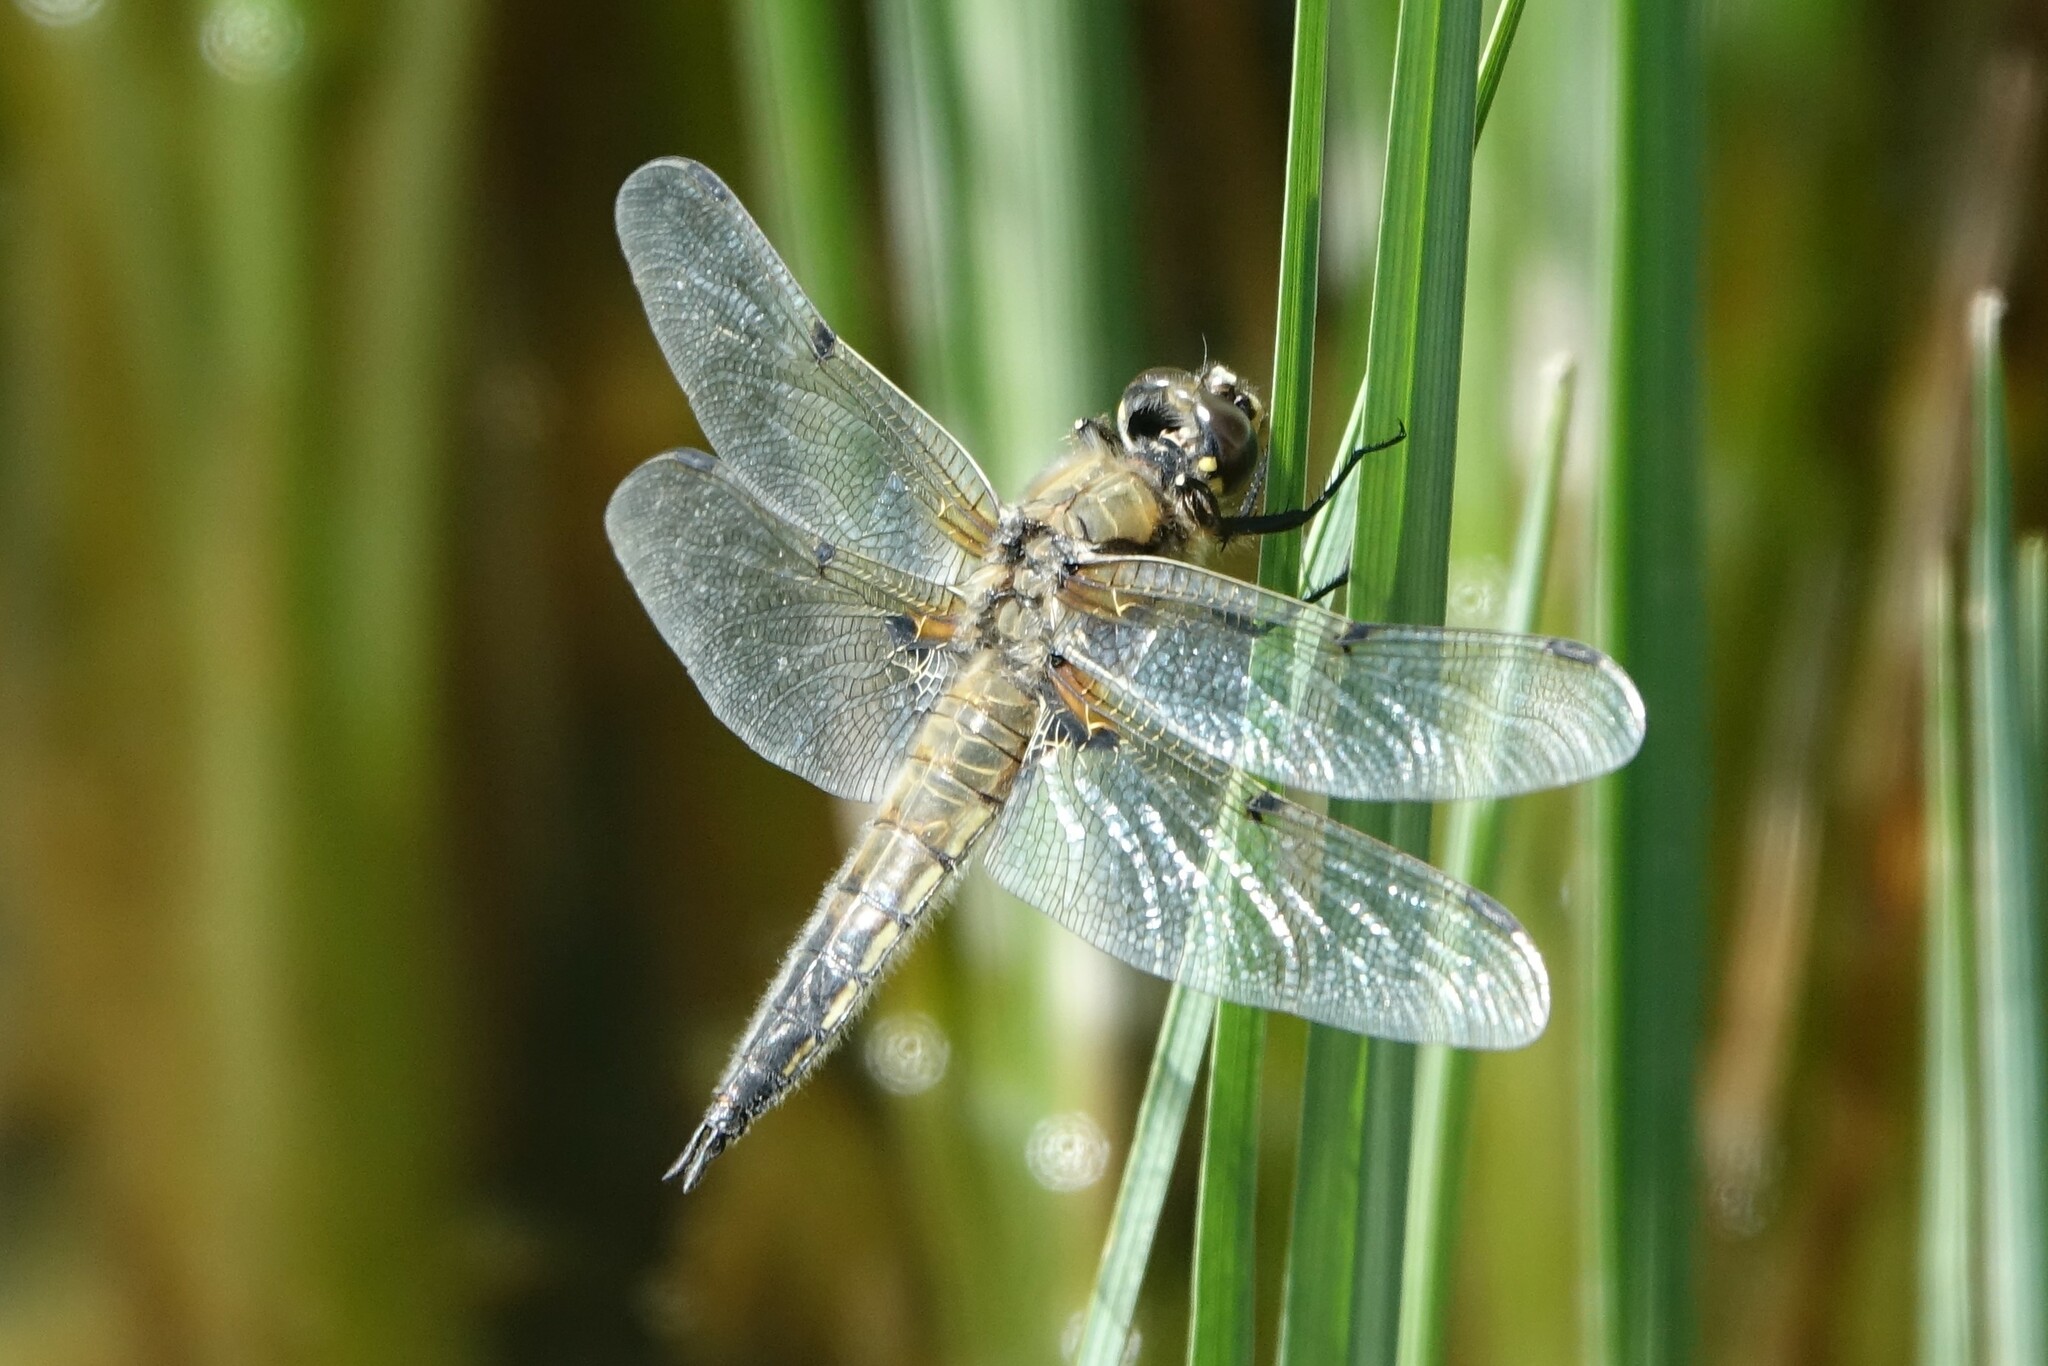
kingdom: Animalia
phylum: Arthropoda
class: Insecta
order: Odonata
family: Libellulidae
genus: Libellula
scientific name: Libellula quadrimaculata
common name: Four-spotted chaser
